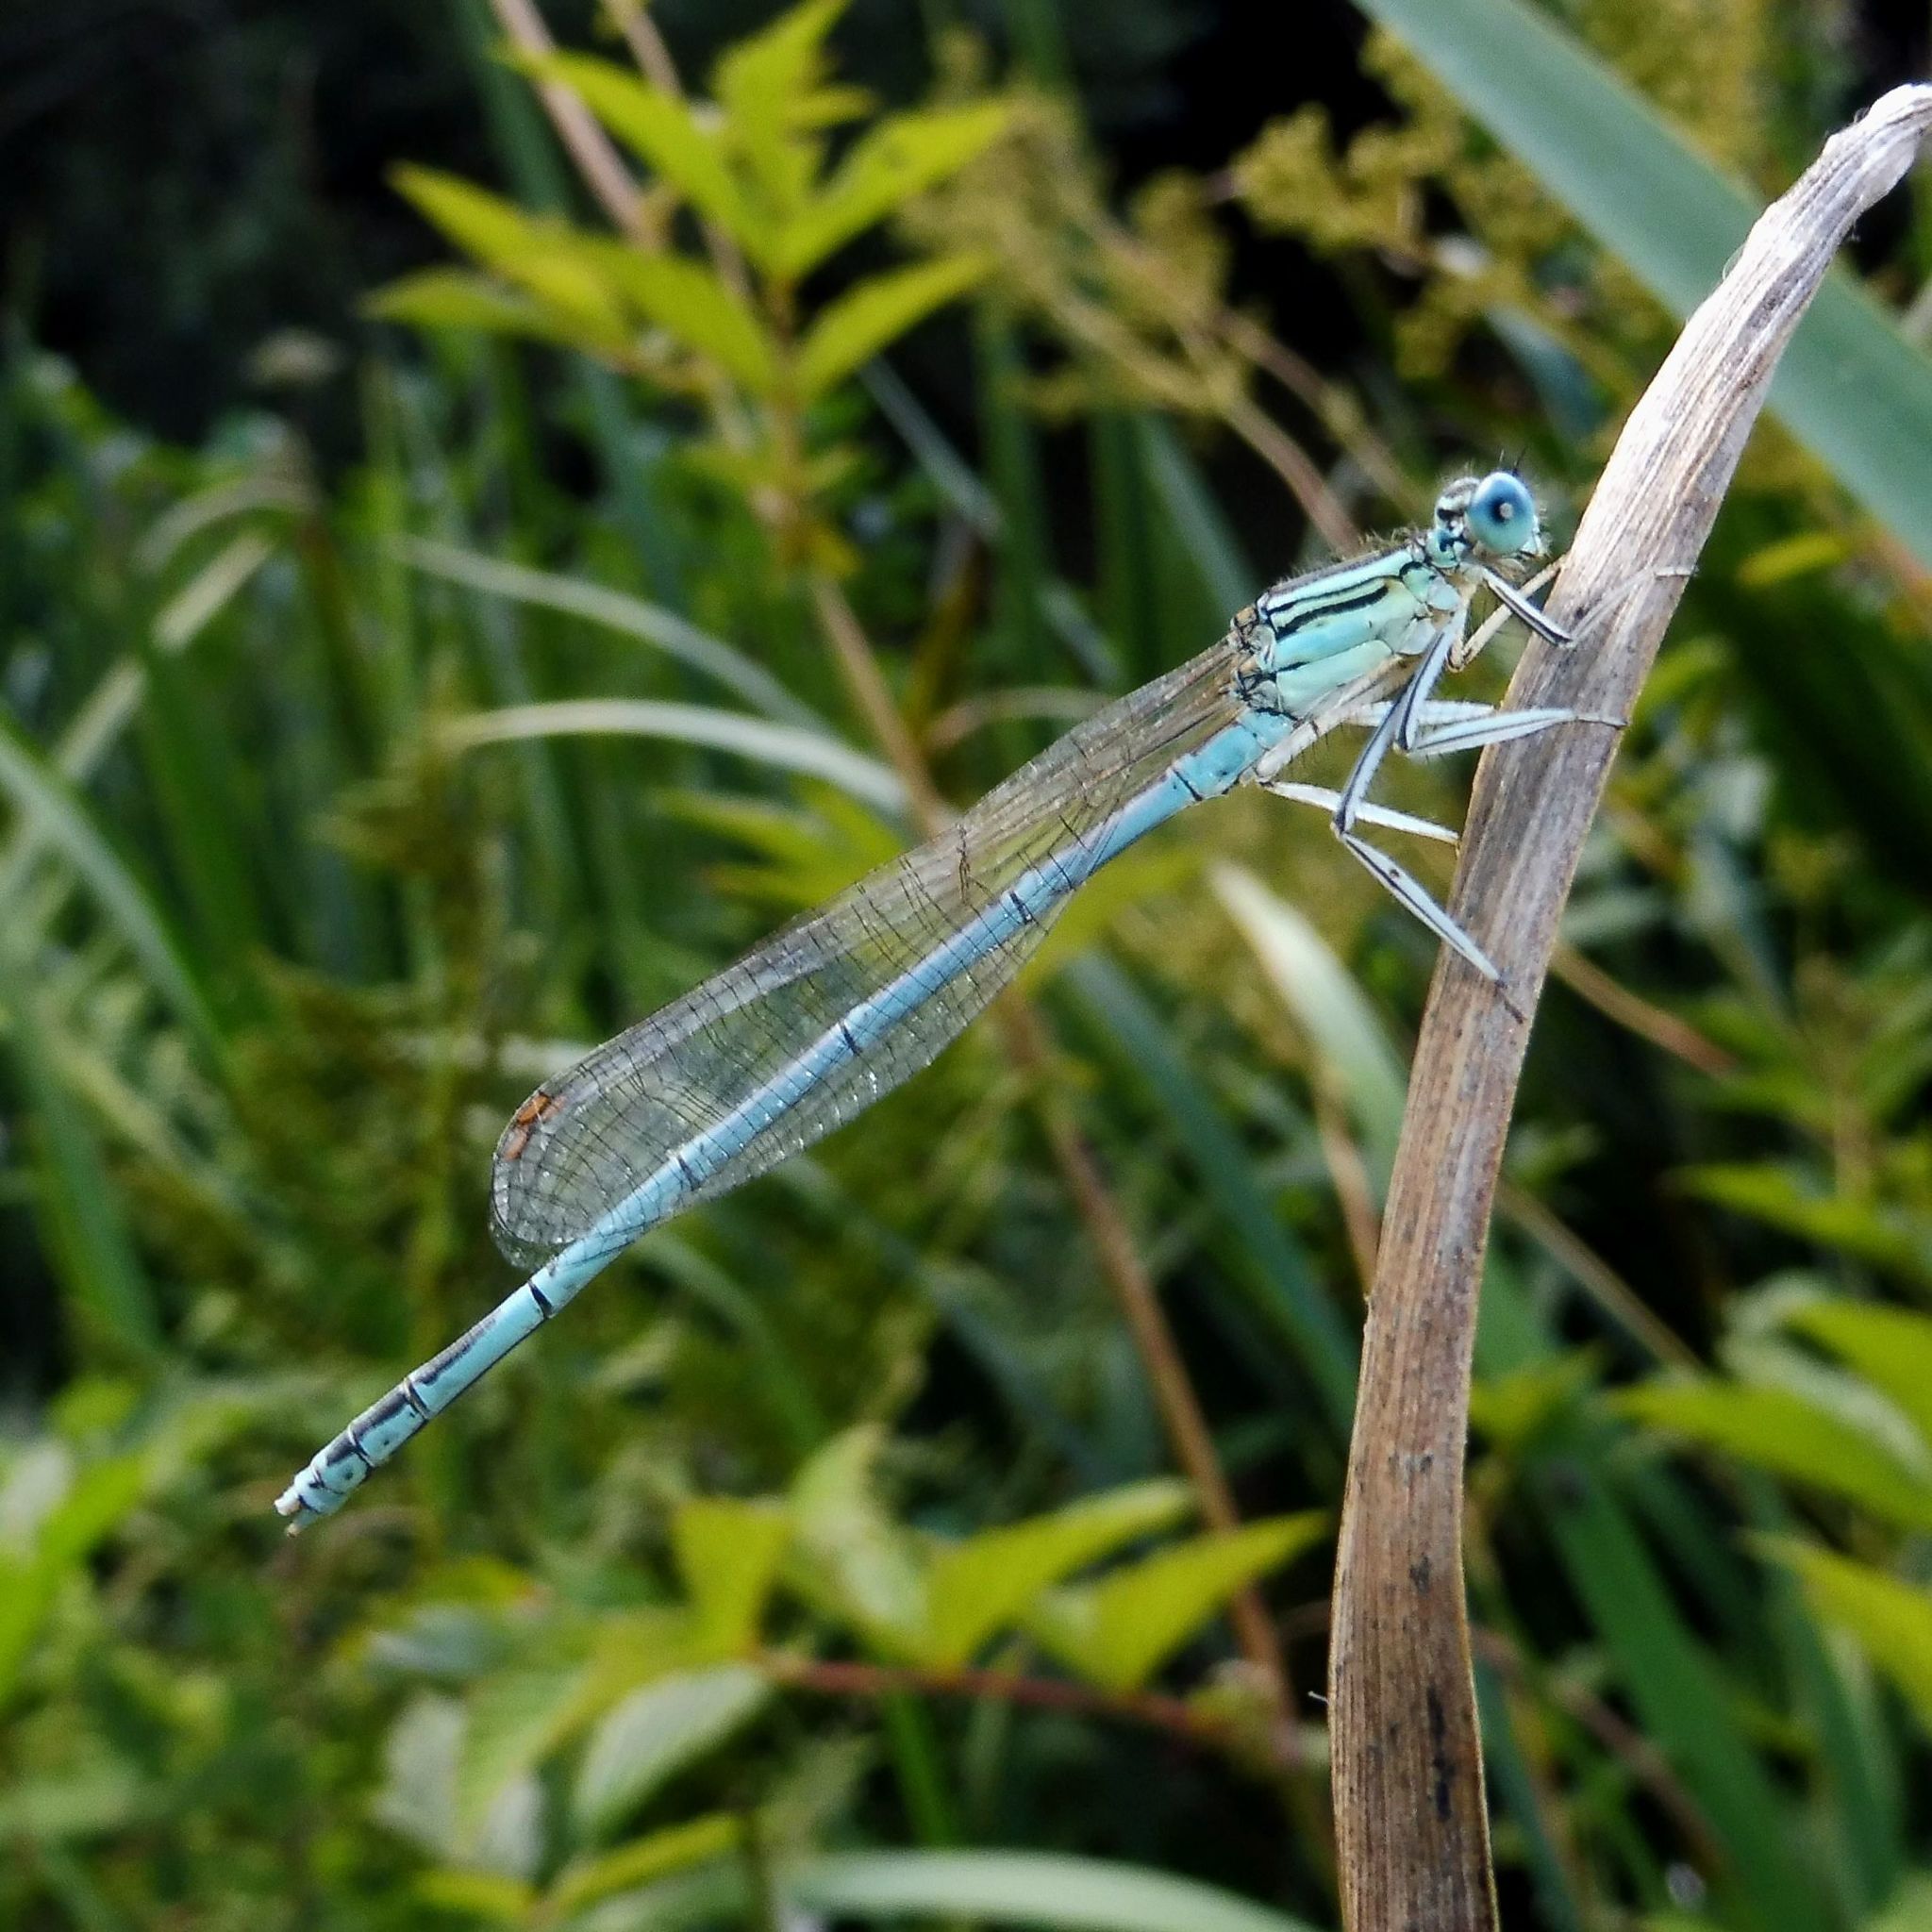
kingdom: Animalia
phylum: Arthropoda
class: Insecta
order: Odonata
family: Platycnemididae
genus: Platycnemis
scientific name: Platycnemis pennipes
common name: White-legged damselfly
